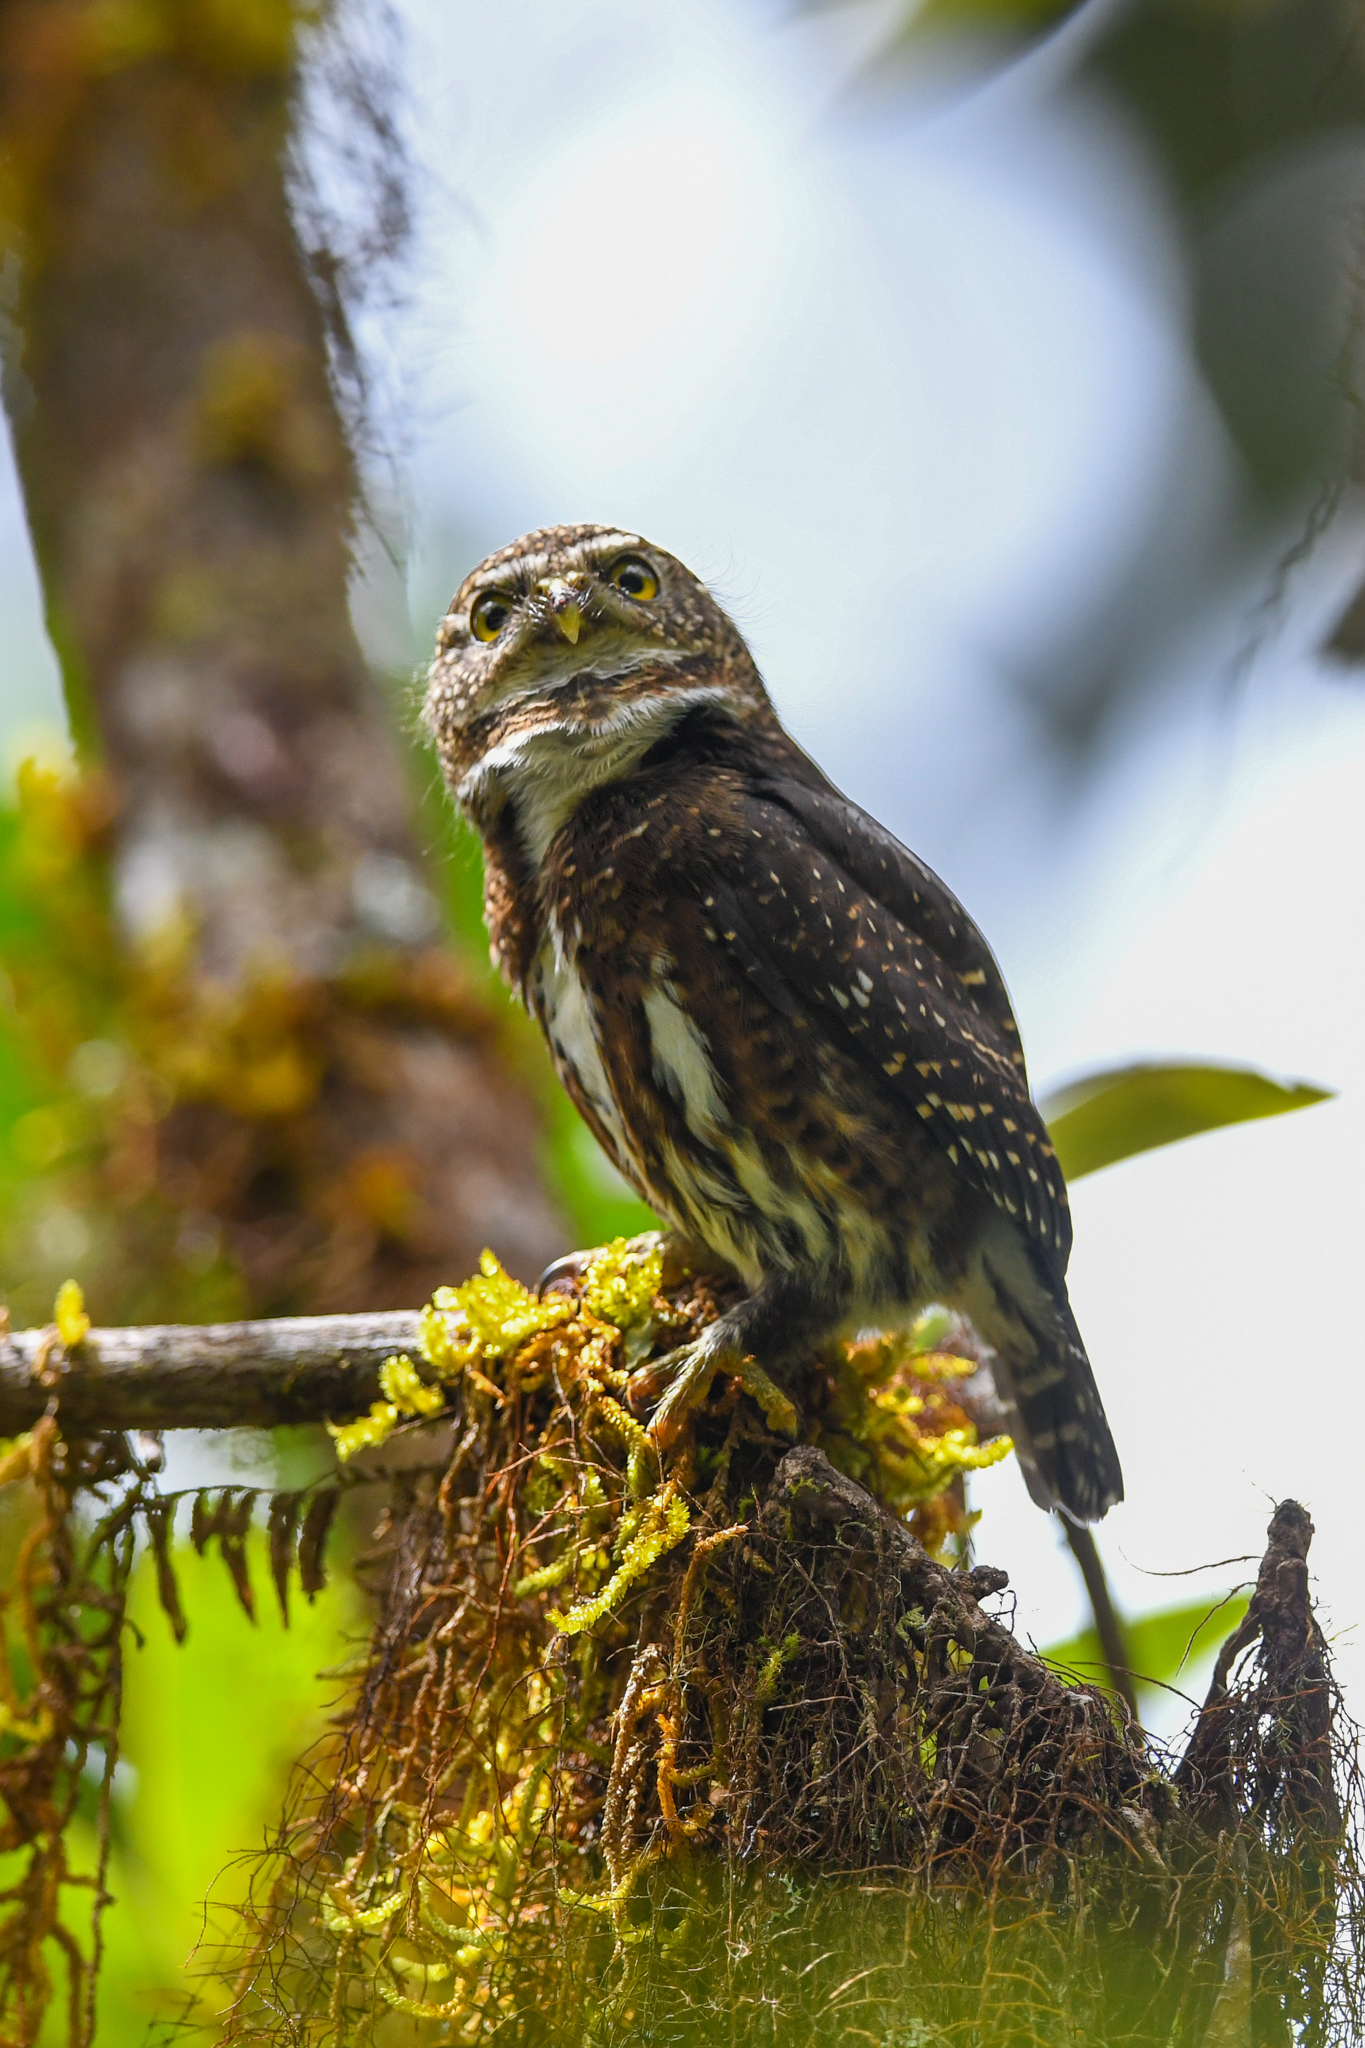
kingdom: Animalia
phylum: Chordata
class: Aves
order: Strigiformes
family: Strigidae
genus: Glaucidium
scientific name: Glaucidium costaricanum
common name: Costa rican pygmy-owl
